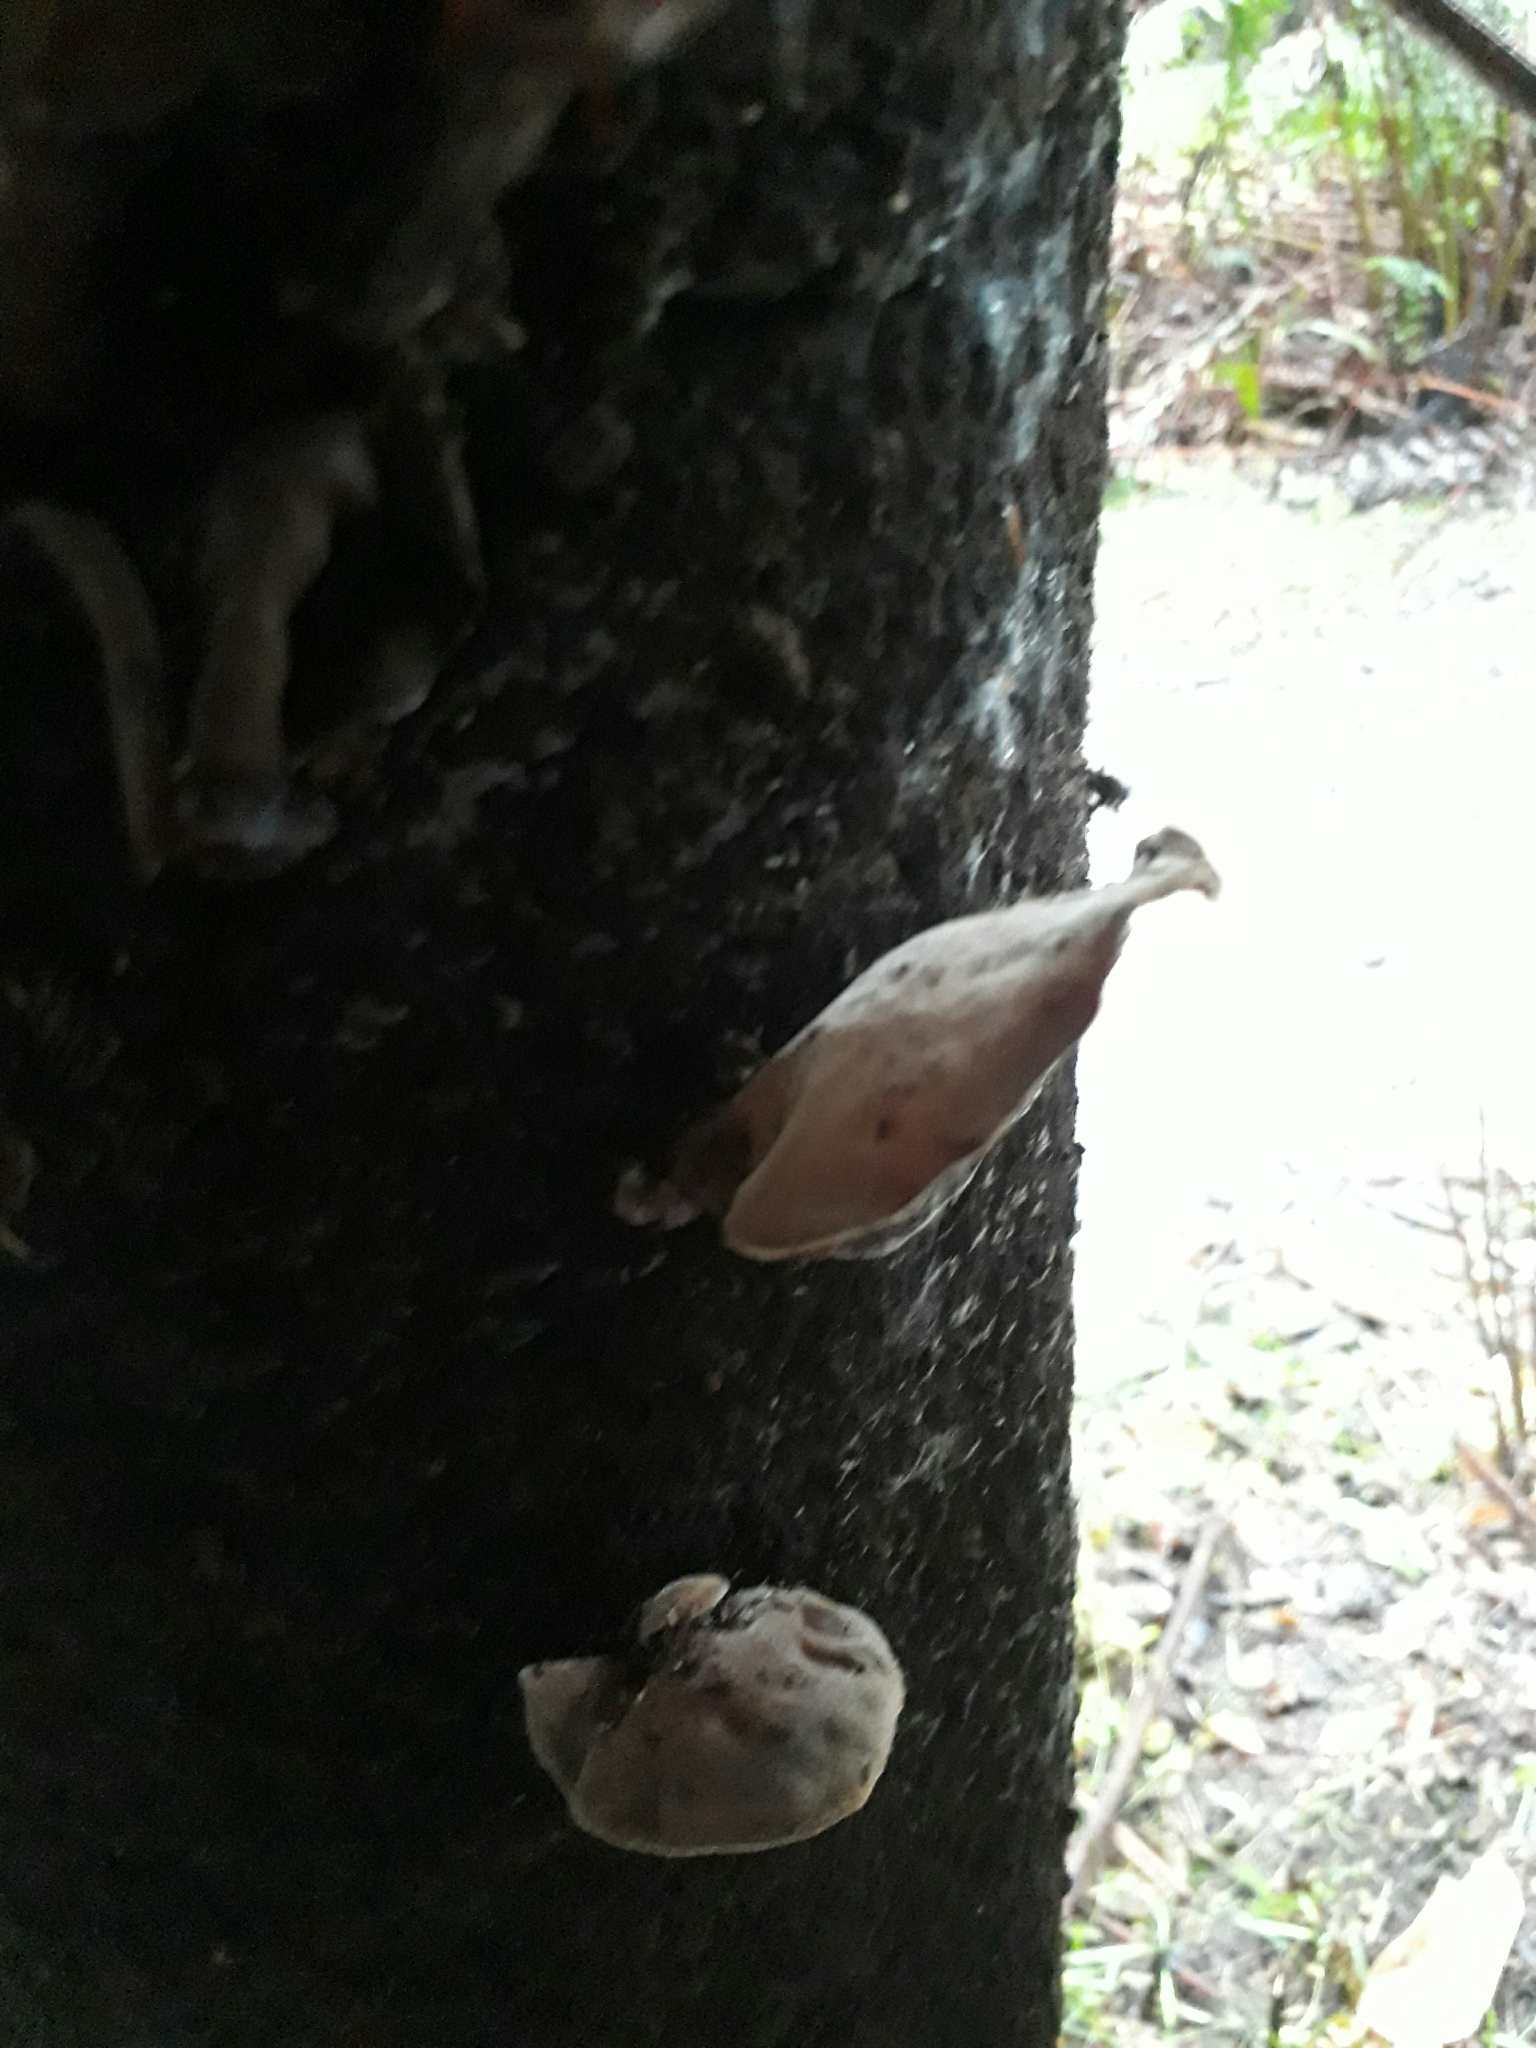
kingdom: Fungi
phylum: Basidiomycota
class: Agaricomycetes
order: Auriculariales
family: Auriculariaceae
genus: Auricularia
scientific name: Auricularia cornea
